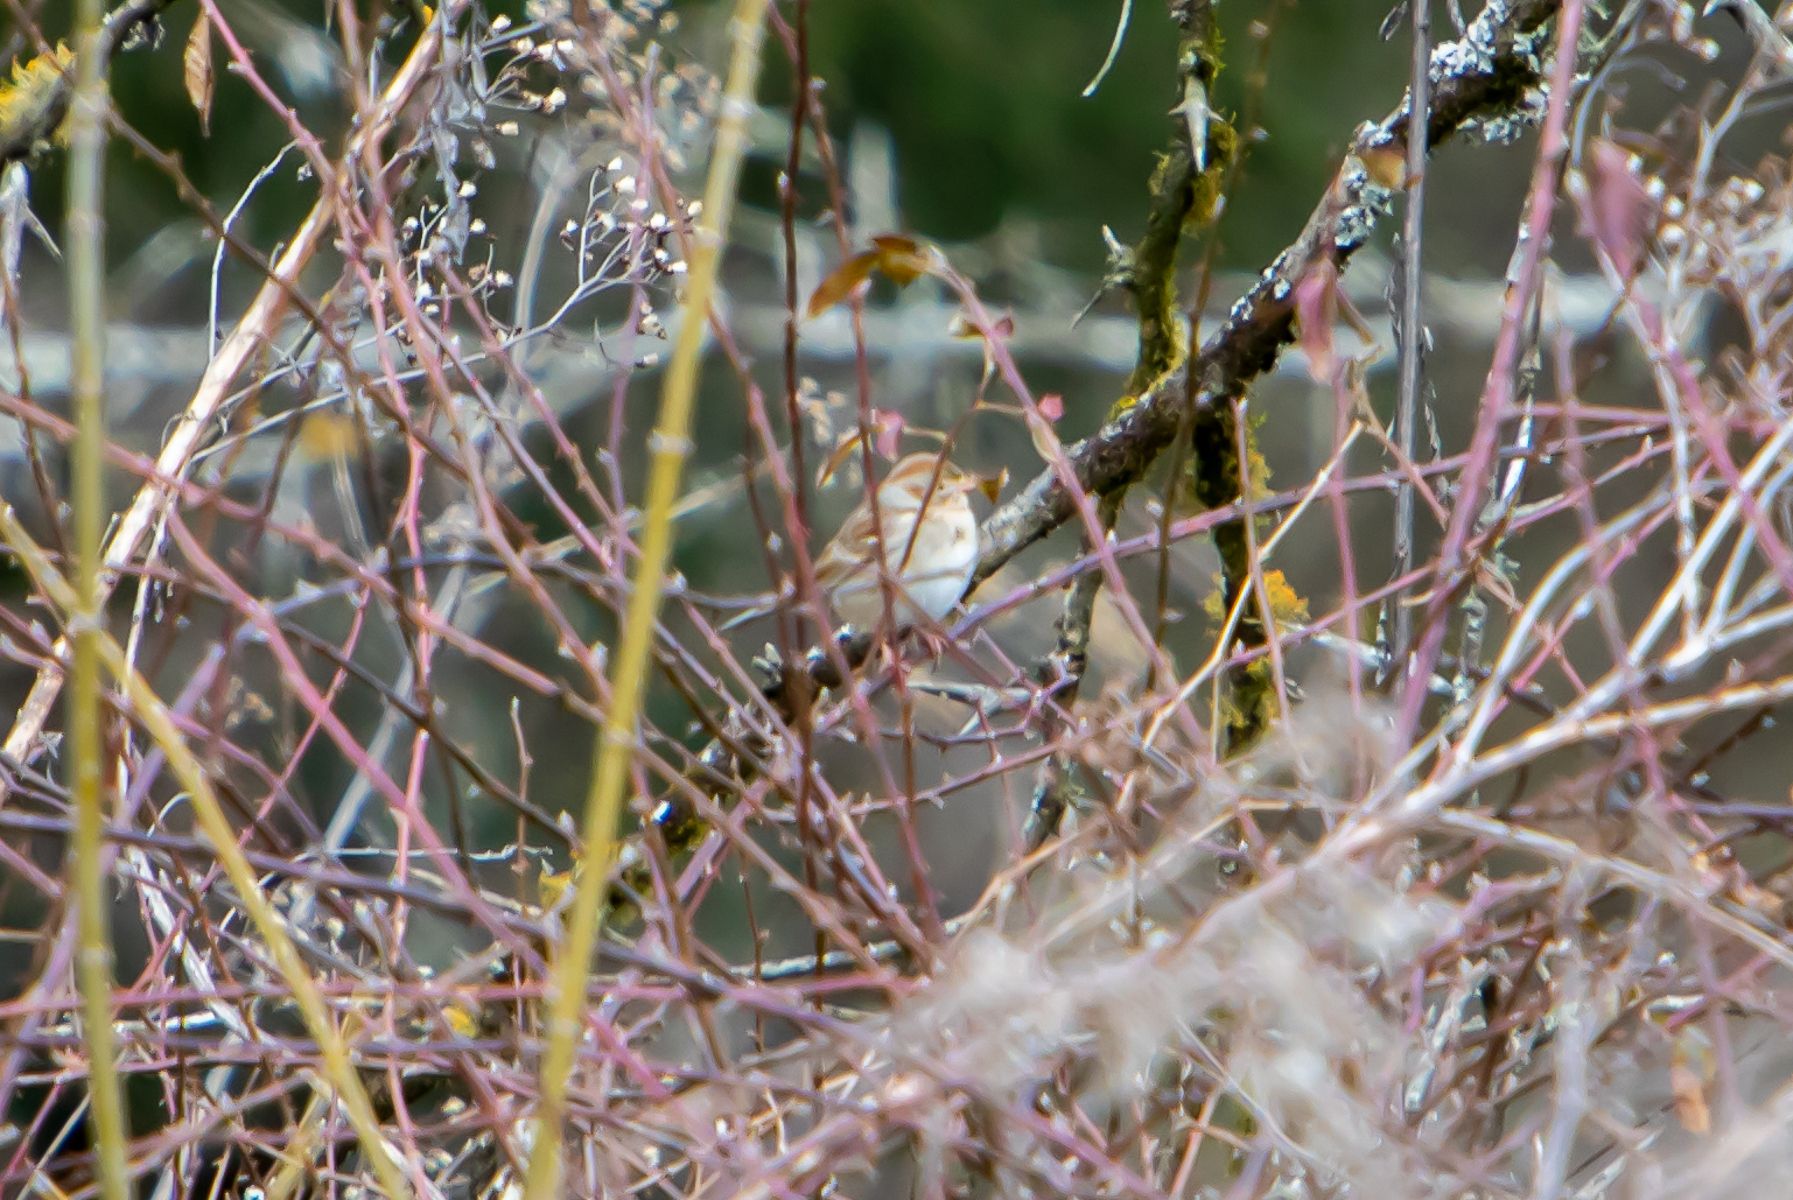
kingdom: Animalia
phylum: Chordata
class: Aves
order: Passeriformes
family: Passerellidae
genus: Spizella
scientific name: Spizella pusilla
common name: Field sparrow
